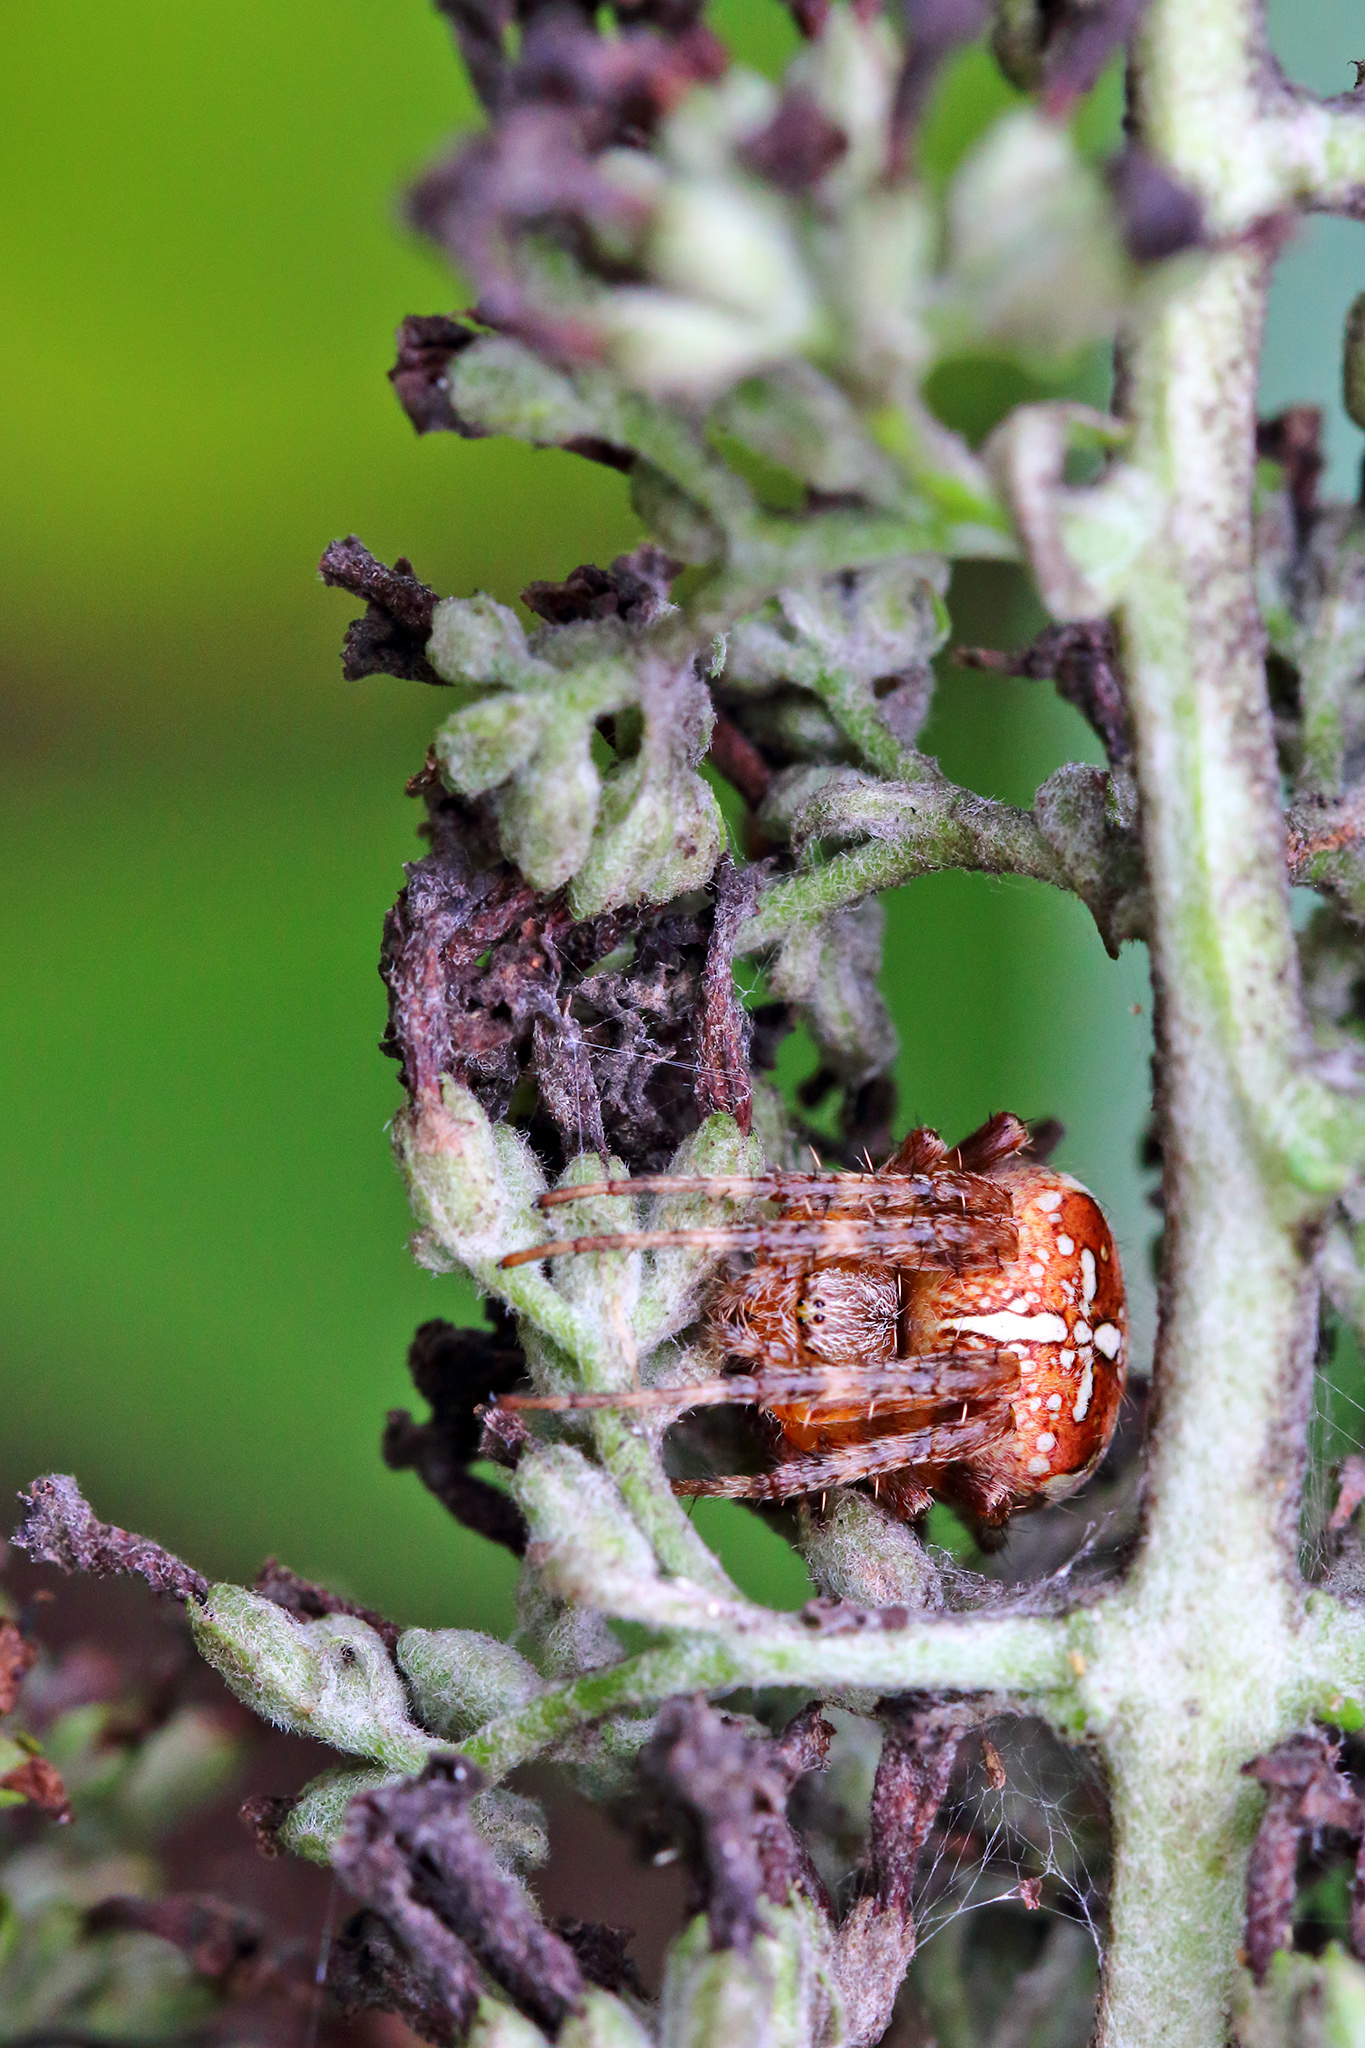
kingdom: Animalia
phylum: Arthropoda
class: Arachnida
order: Araneae
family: Araneidae
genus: Araneus
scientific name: Araneus diadematus
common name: Cross orbweaver
